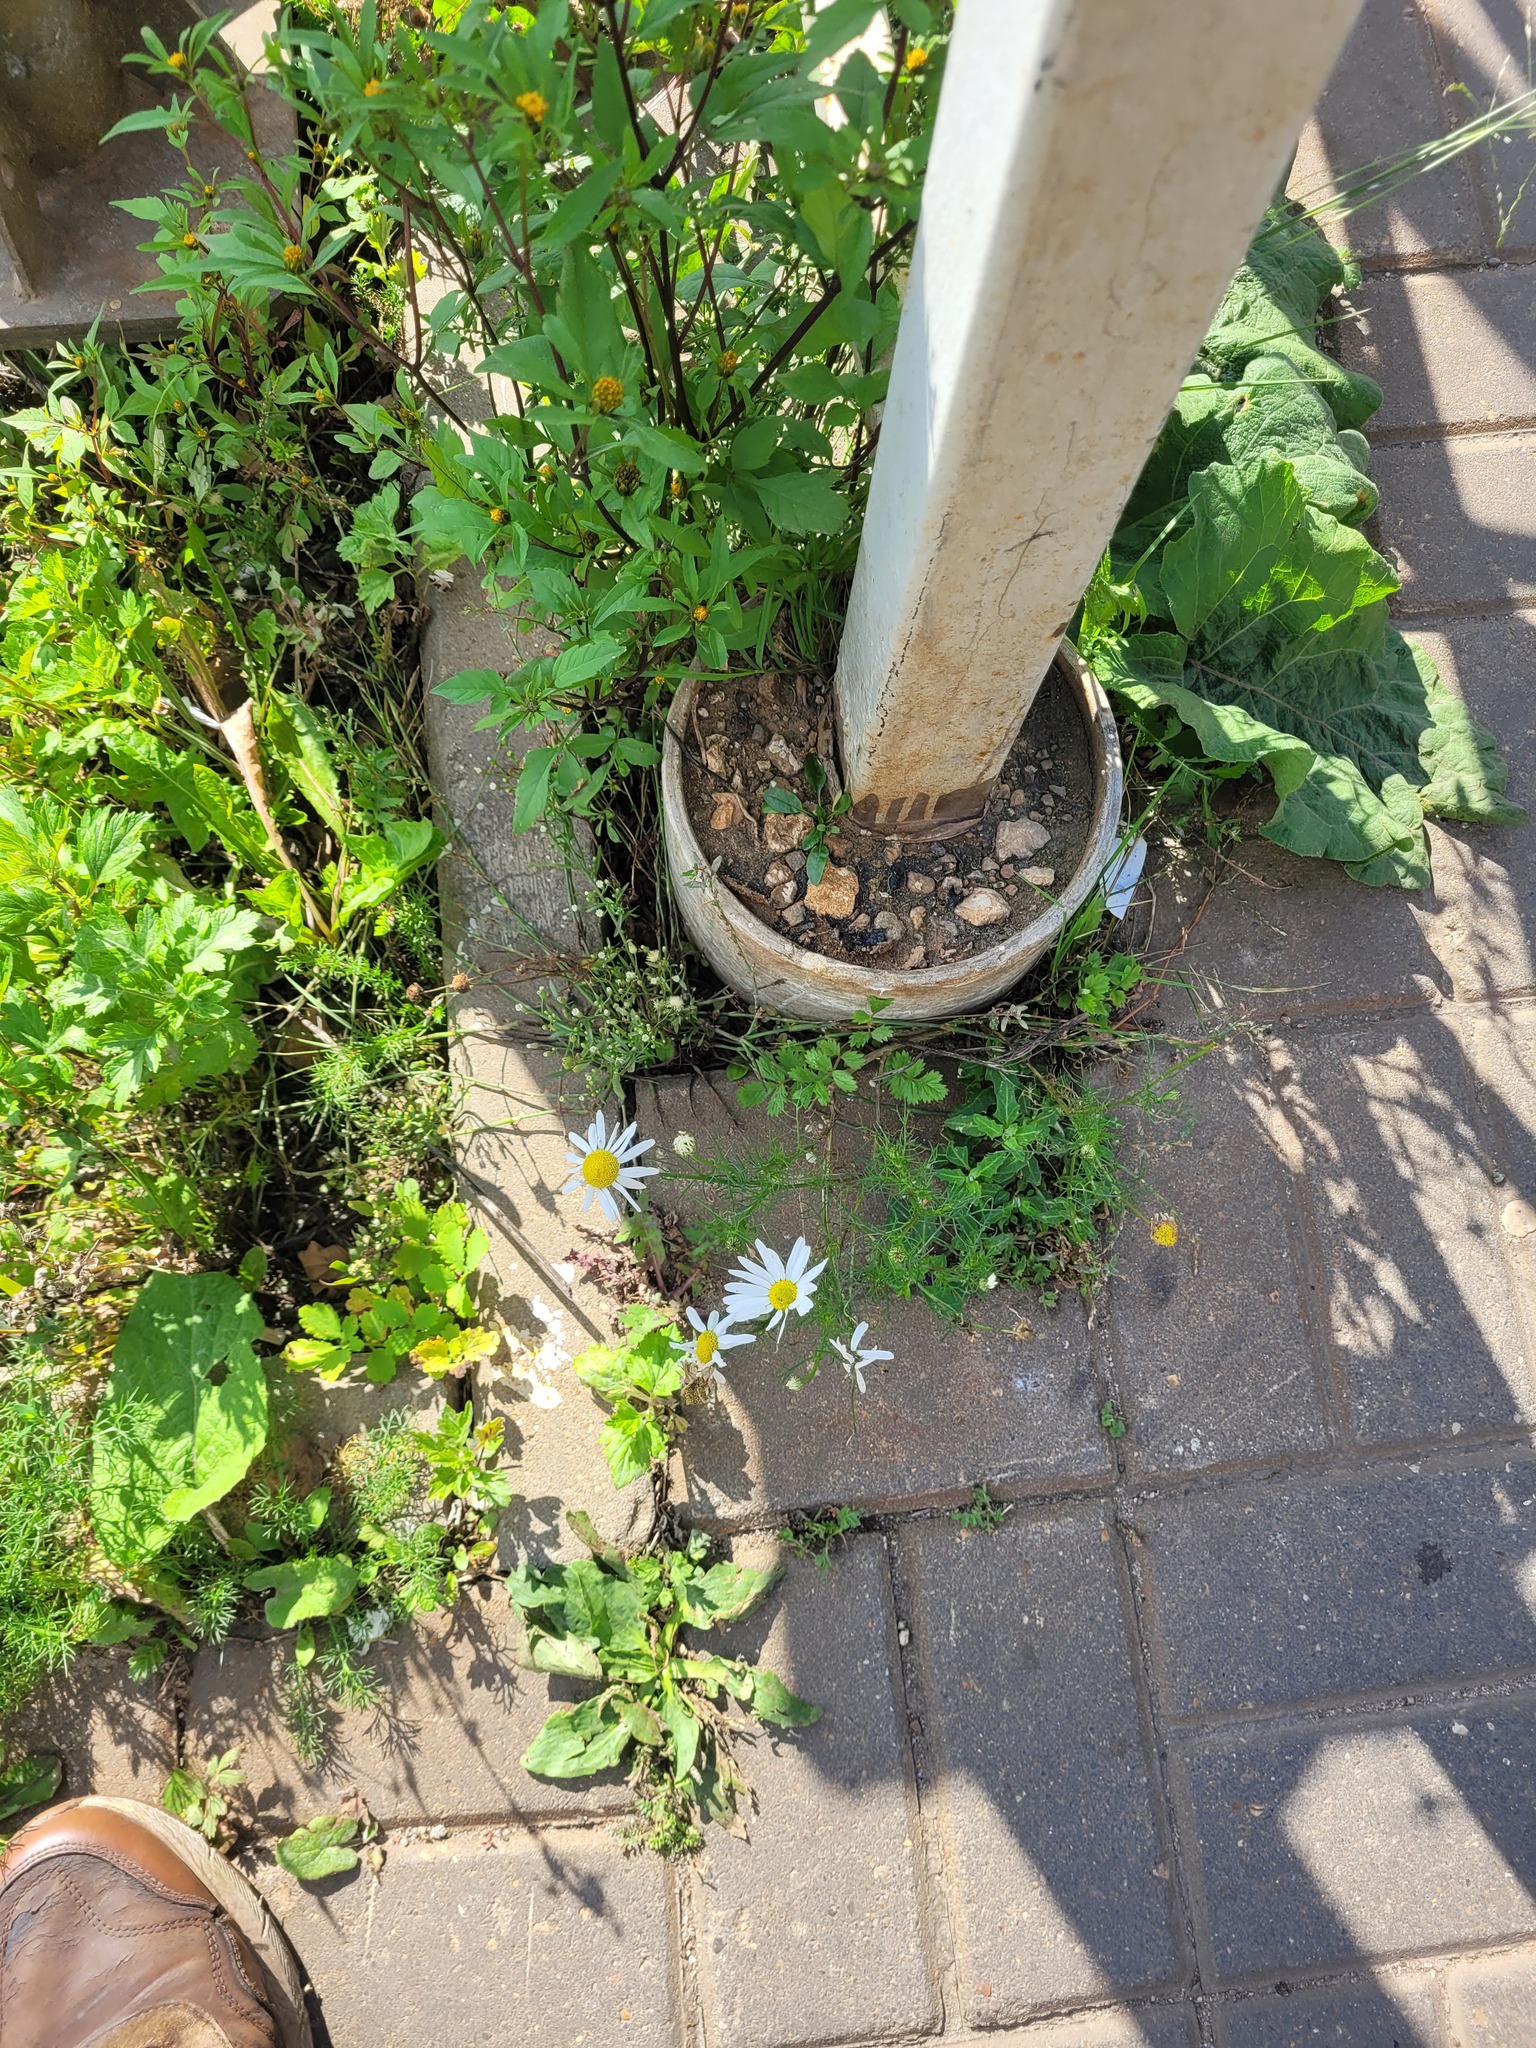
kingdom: Plantae
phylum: Tracheophyta
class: Magnoliopsida
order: Asterales
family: Asteraceae
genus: Tripleurospermum
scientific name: Tripleurospermum inodorum
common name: Scentless mayweed
